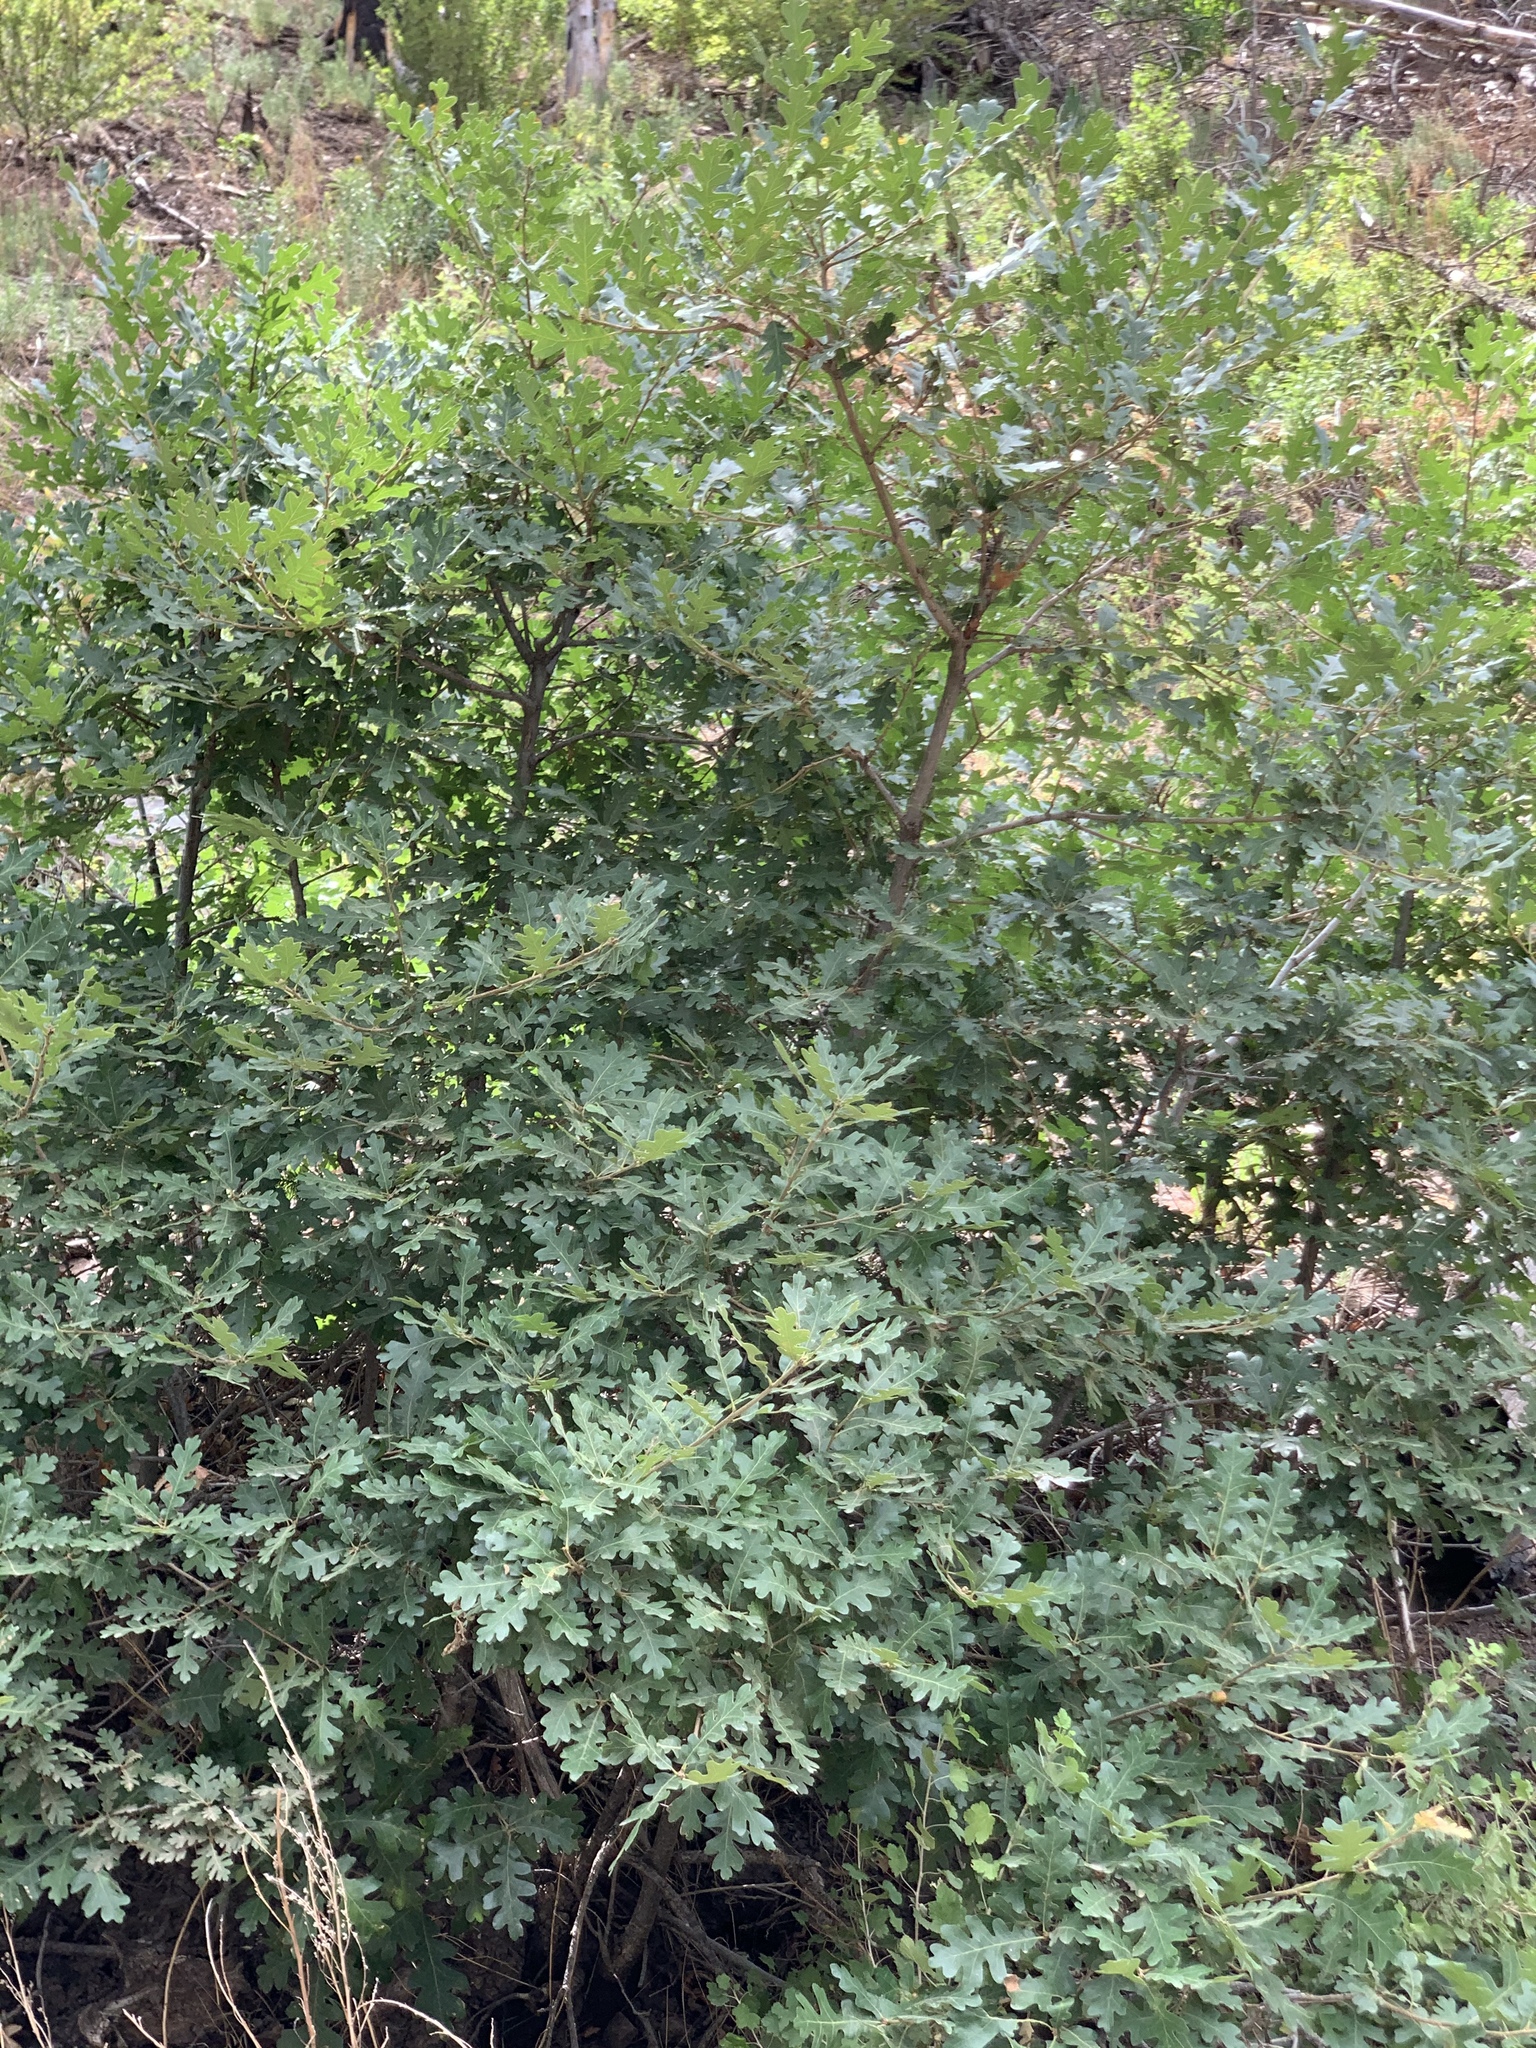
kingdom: Plantae
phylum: Tracheophyta
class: Magnoliopsida
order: Fagales
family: Fagaceae
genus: Quercus
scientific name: Quercus gambelii
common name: Gambel oak
